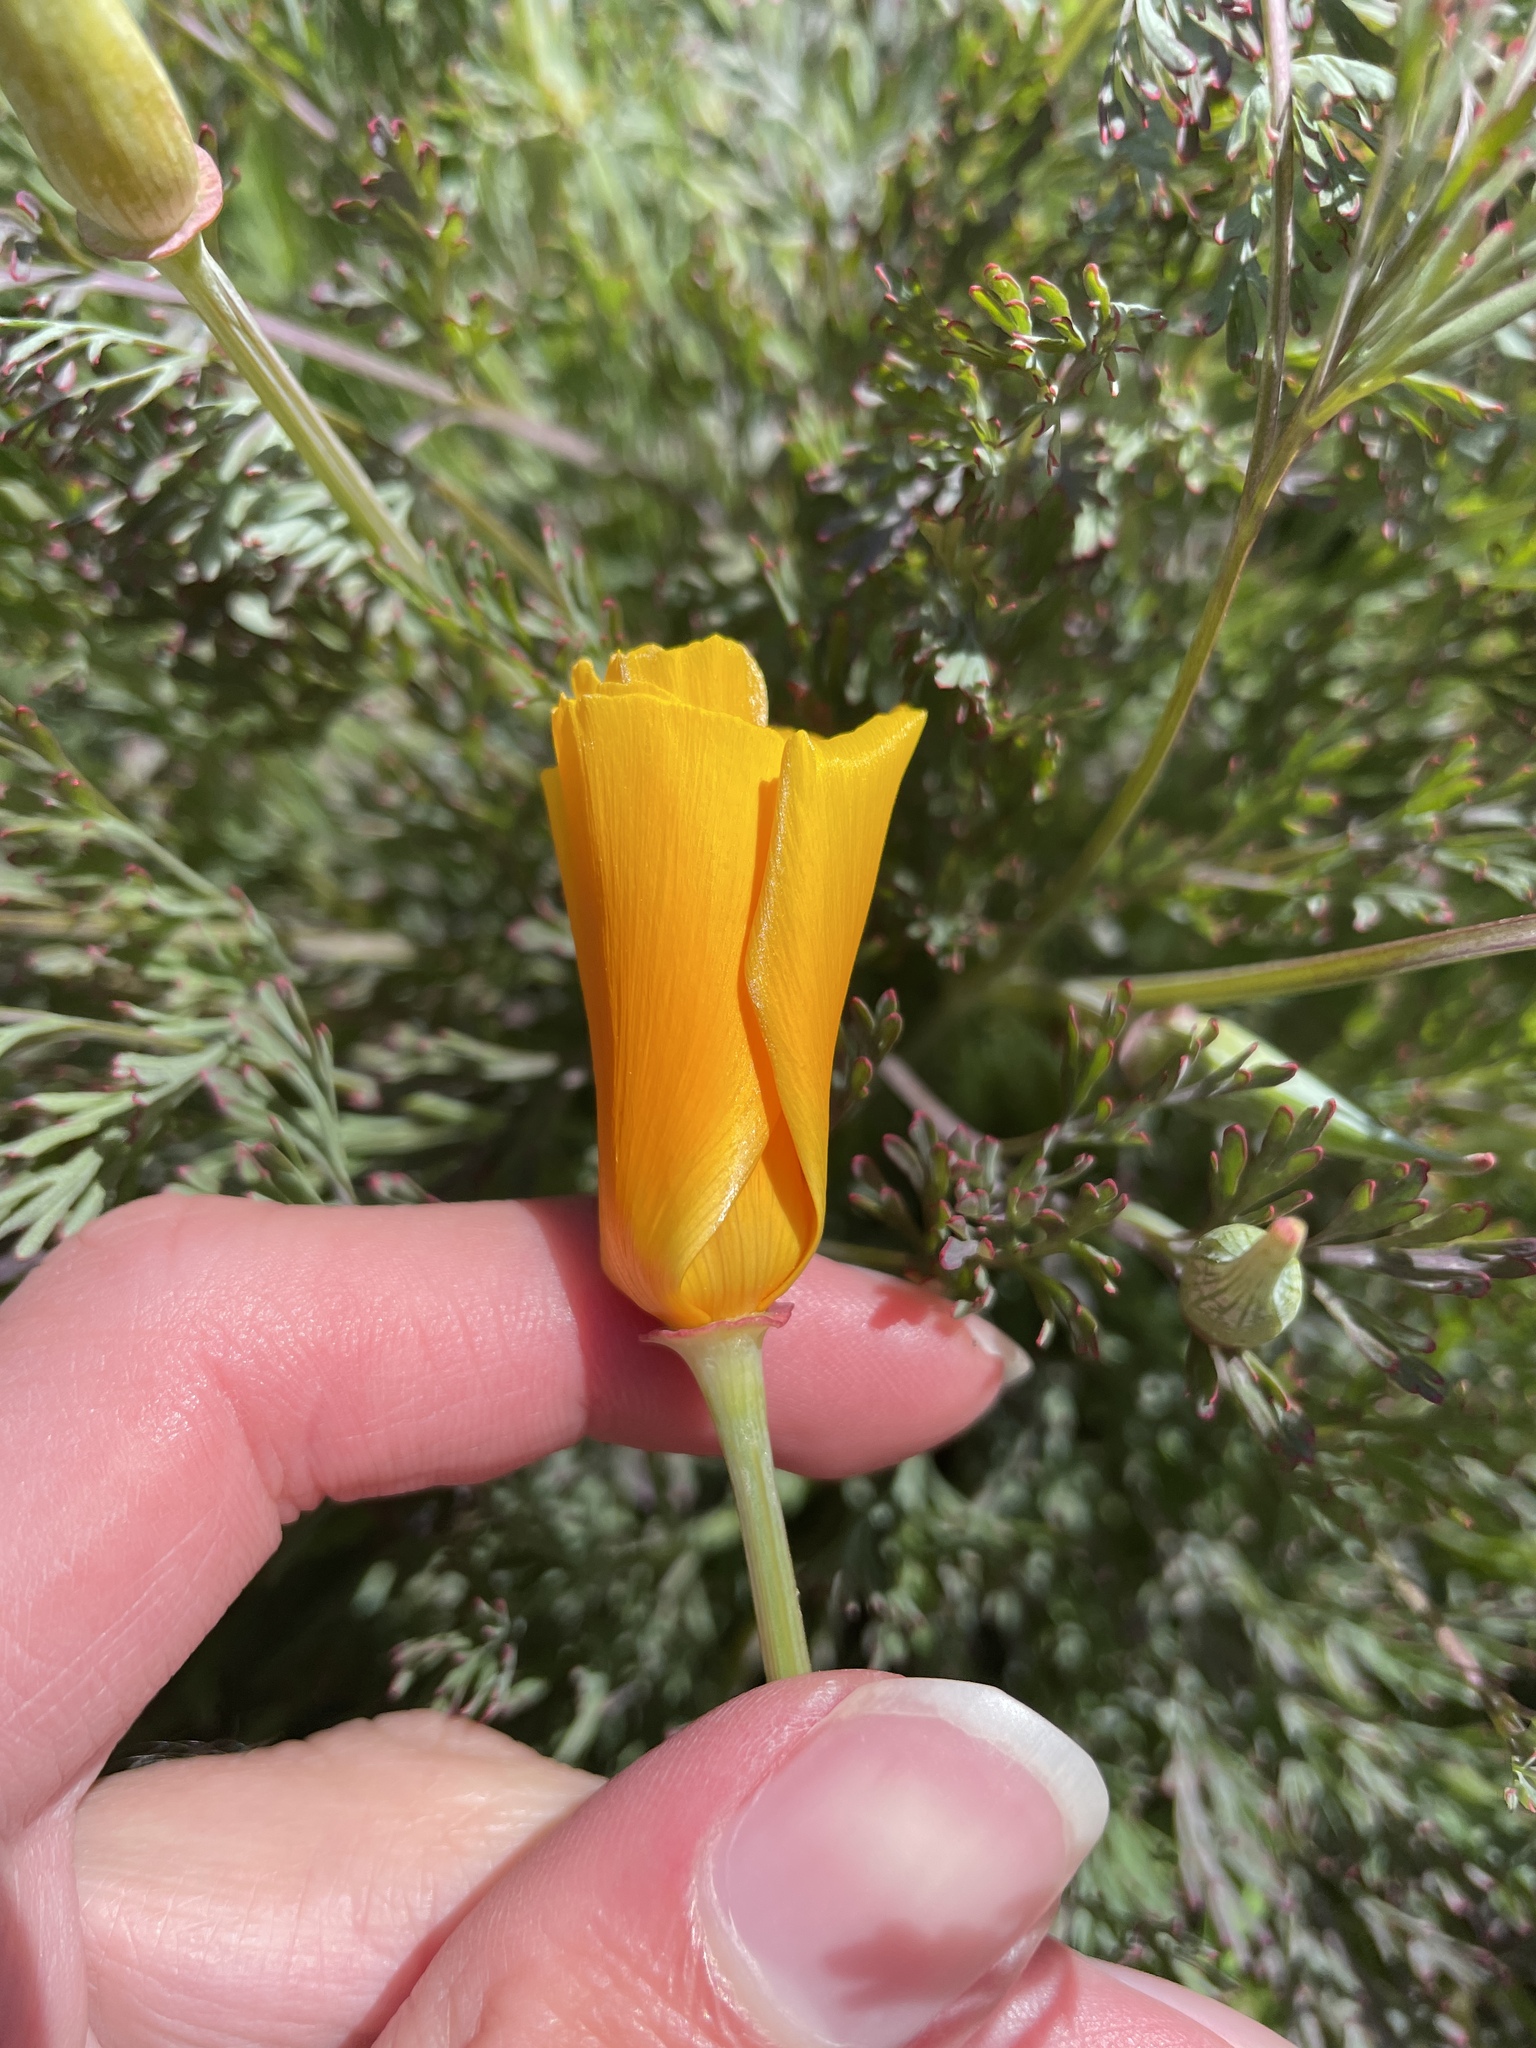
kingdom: Plantae
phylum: Tracheophyta
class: Magnoliopsida
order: Ranunculales
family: Papaveraceae
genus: Eschscholzia
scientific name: Eschscholzia californica
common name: California poppy
